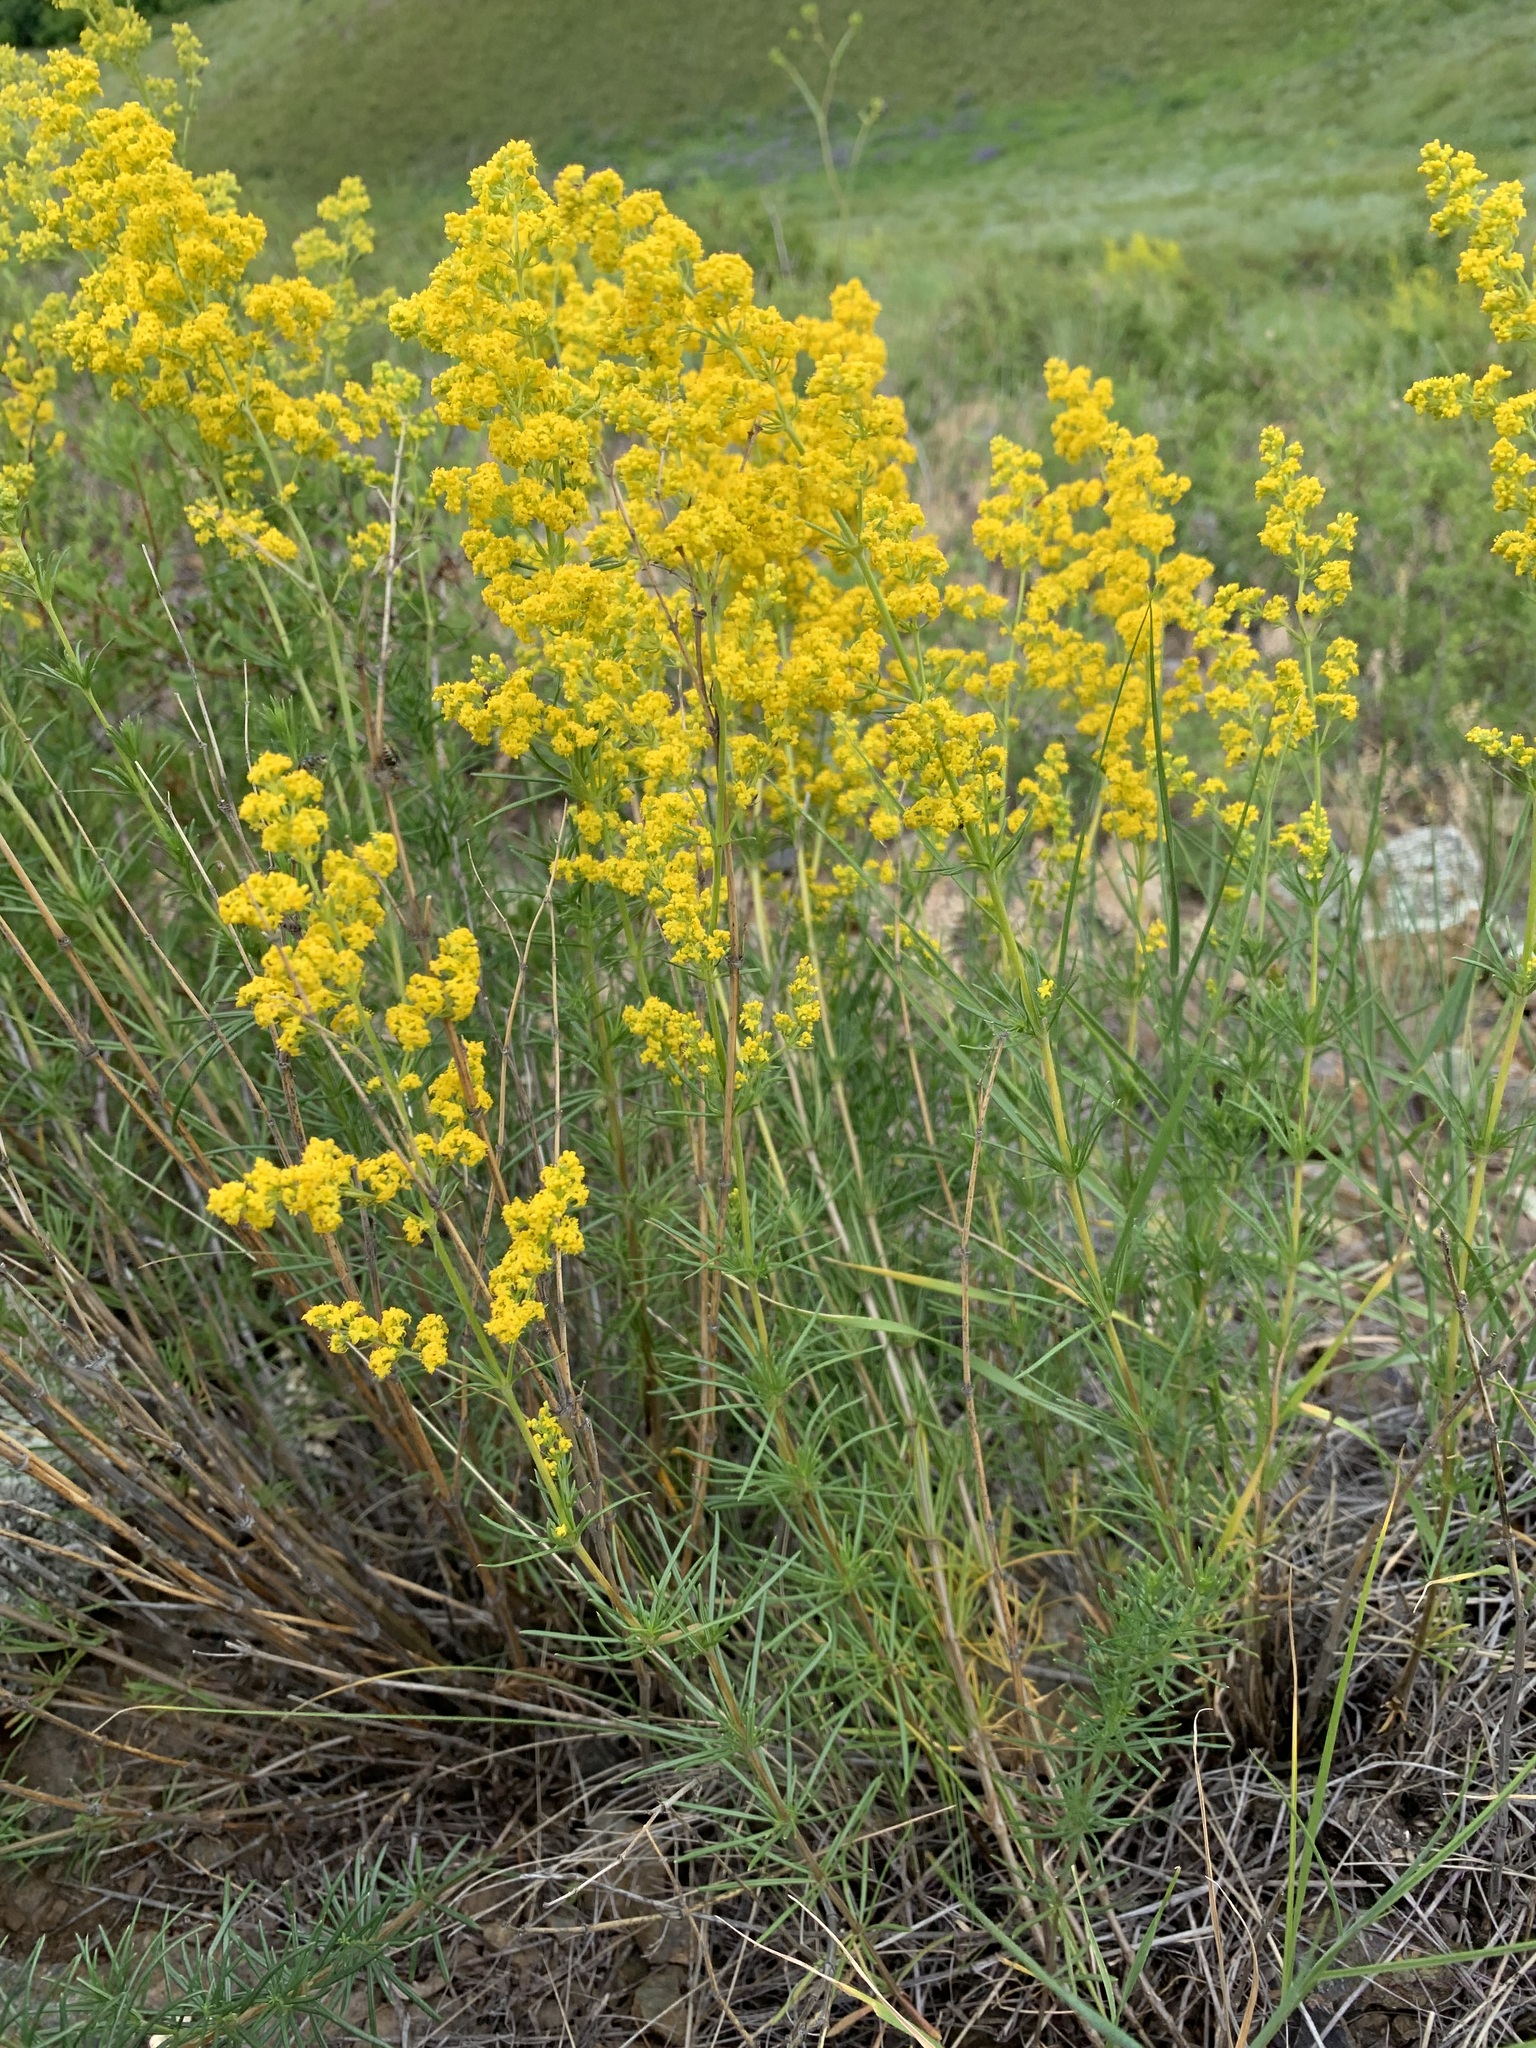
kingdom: Plantae
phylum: Tracheophyta
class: Magnoliopsida
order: Gentianales
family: Rubiaceae
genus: Galium
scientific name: Galium verum
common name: Lady's bedstraw
